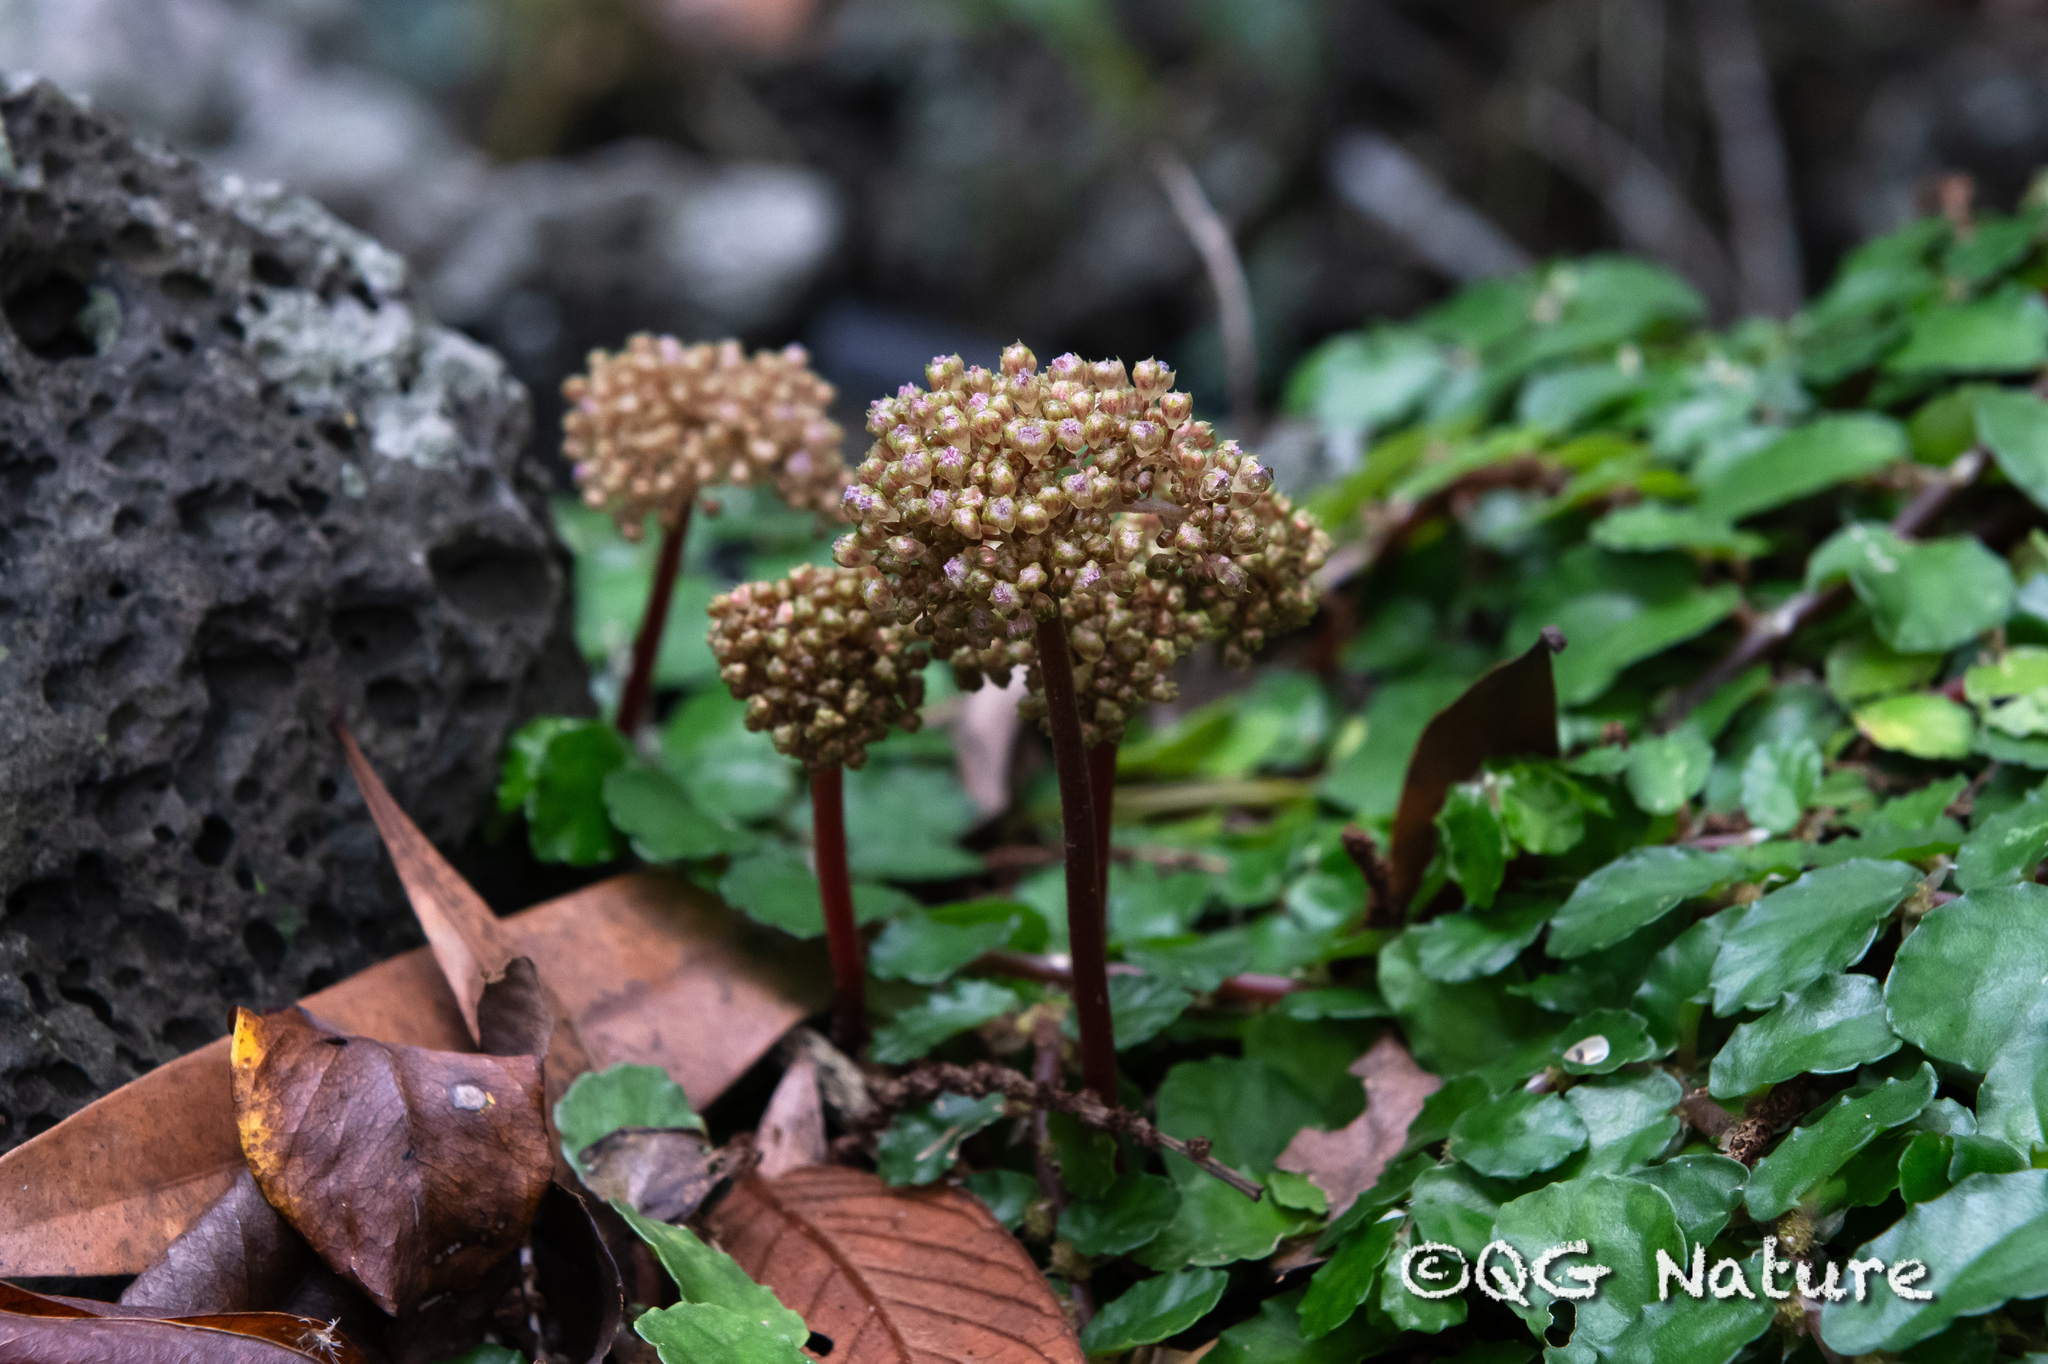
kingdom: Plantae
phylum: Tracheophyta
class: Magnoliopsida
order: Rosales
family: Urticaceae
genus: Procris
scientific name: Procris repens
